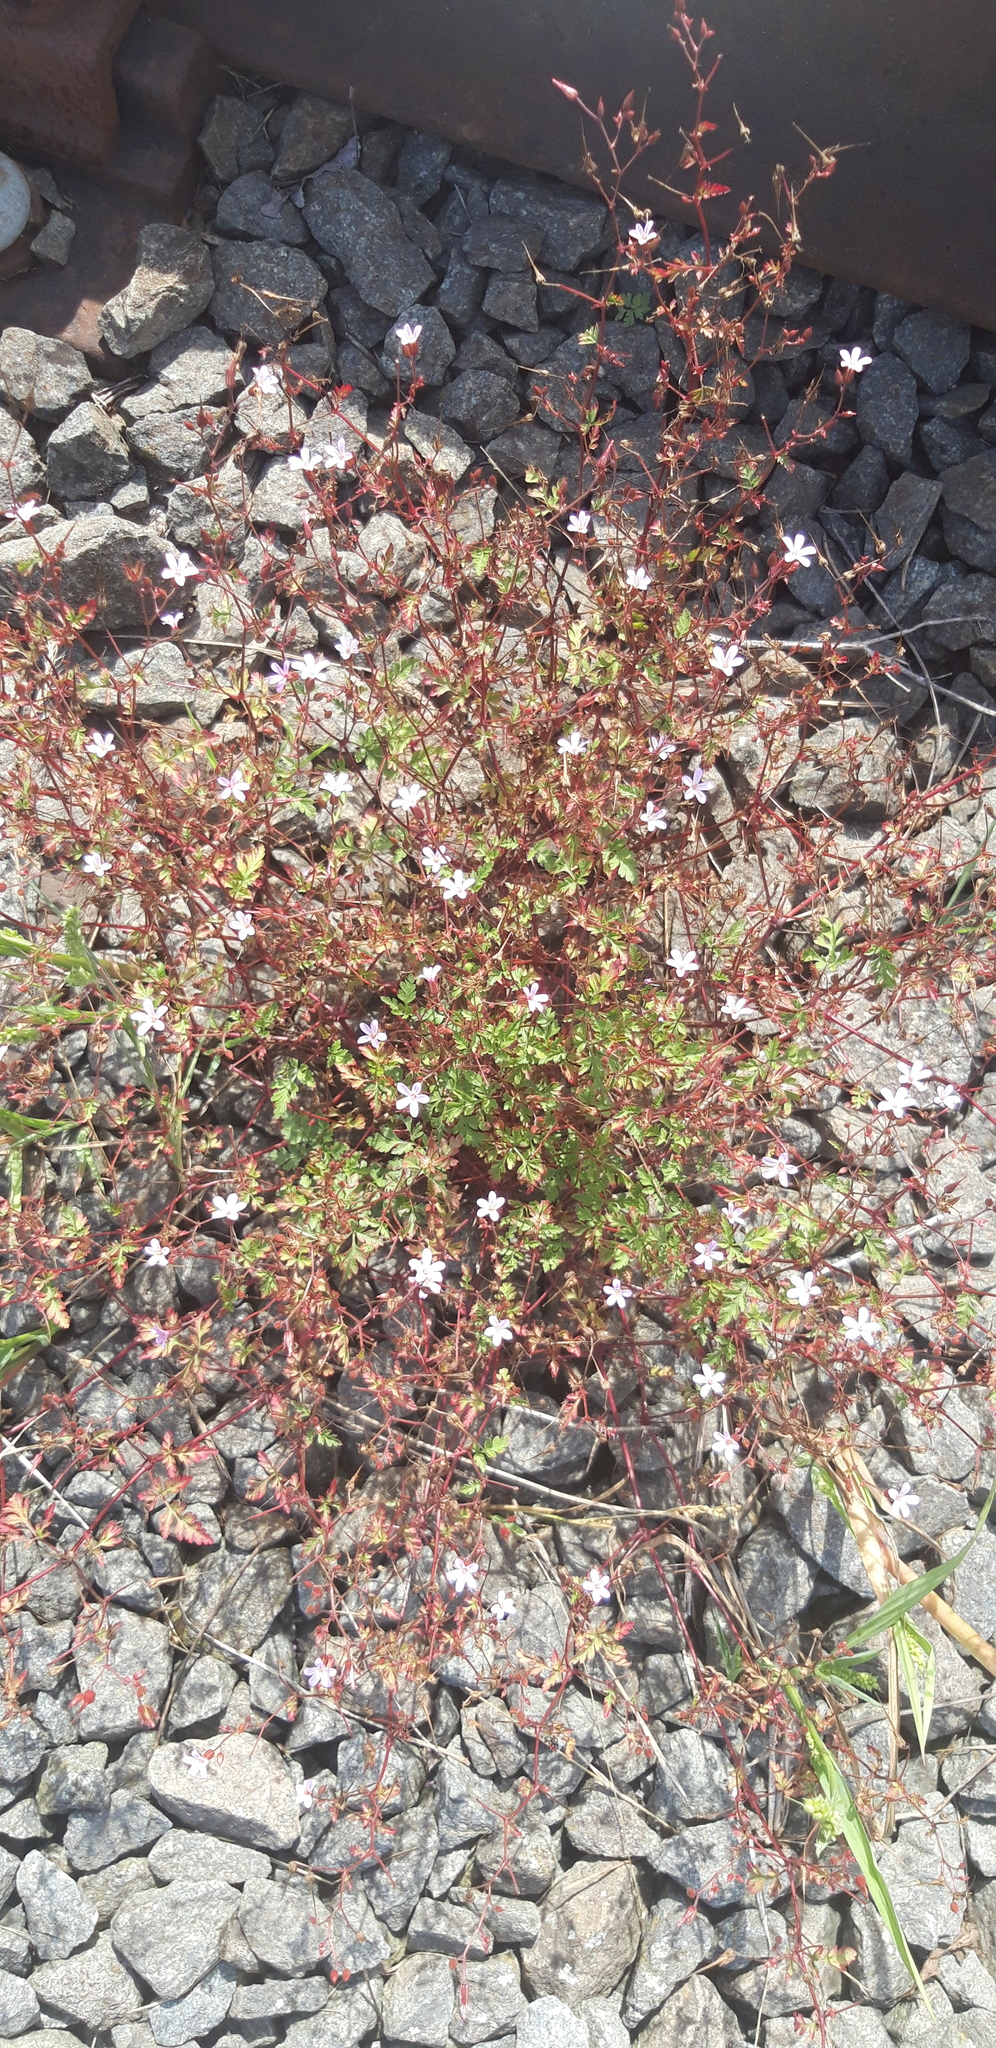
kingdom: Plantae
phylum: Tracheophyta
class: Magnoliopsida
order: Geraniales
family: Geraniaceae
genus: Geranium
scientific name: Geranium
